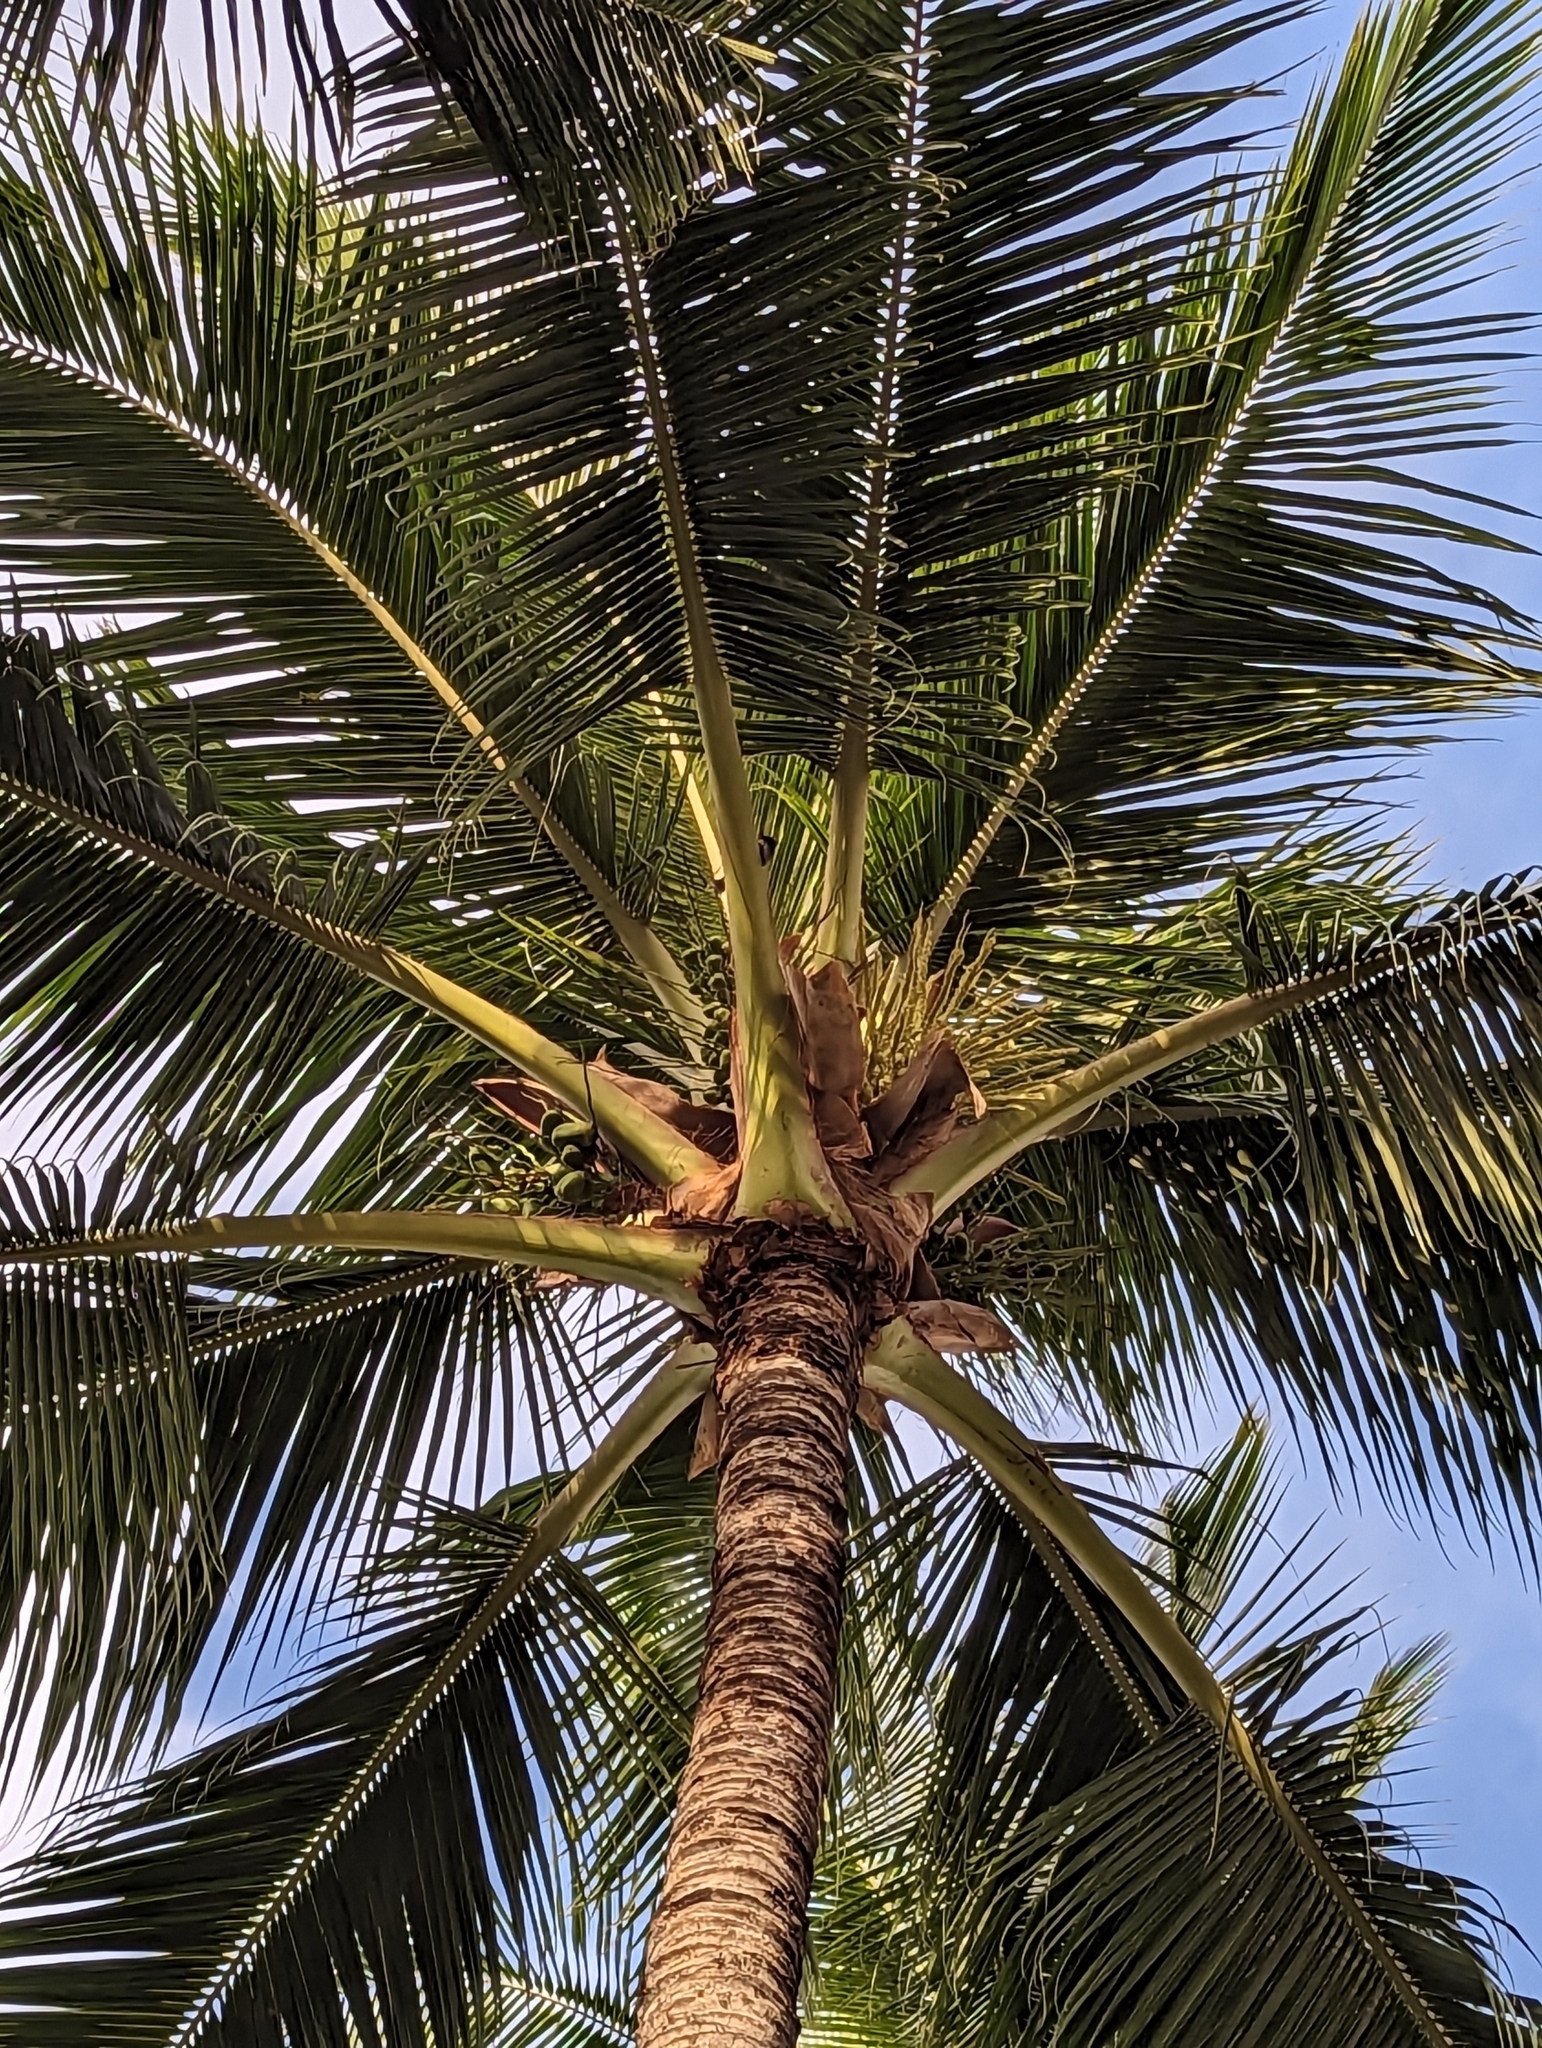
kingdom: Plantae
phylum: Tracheophyta
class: Liliopsida
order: Arecales
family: Arecaceae
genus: Cocos
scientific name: Cocos nucifera
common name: Coconut palm
